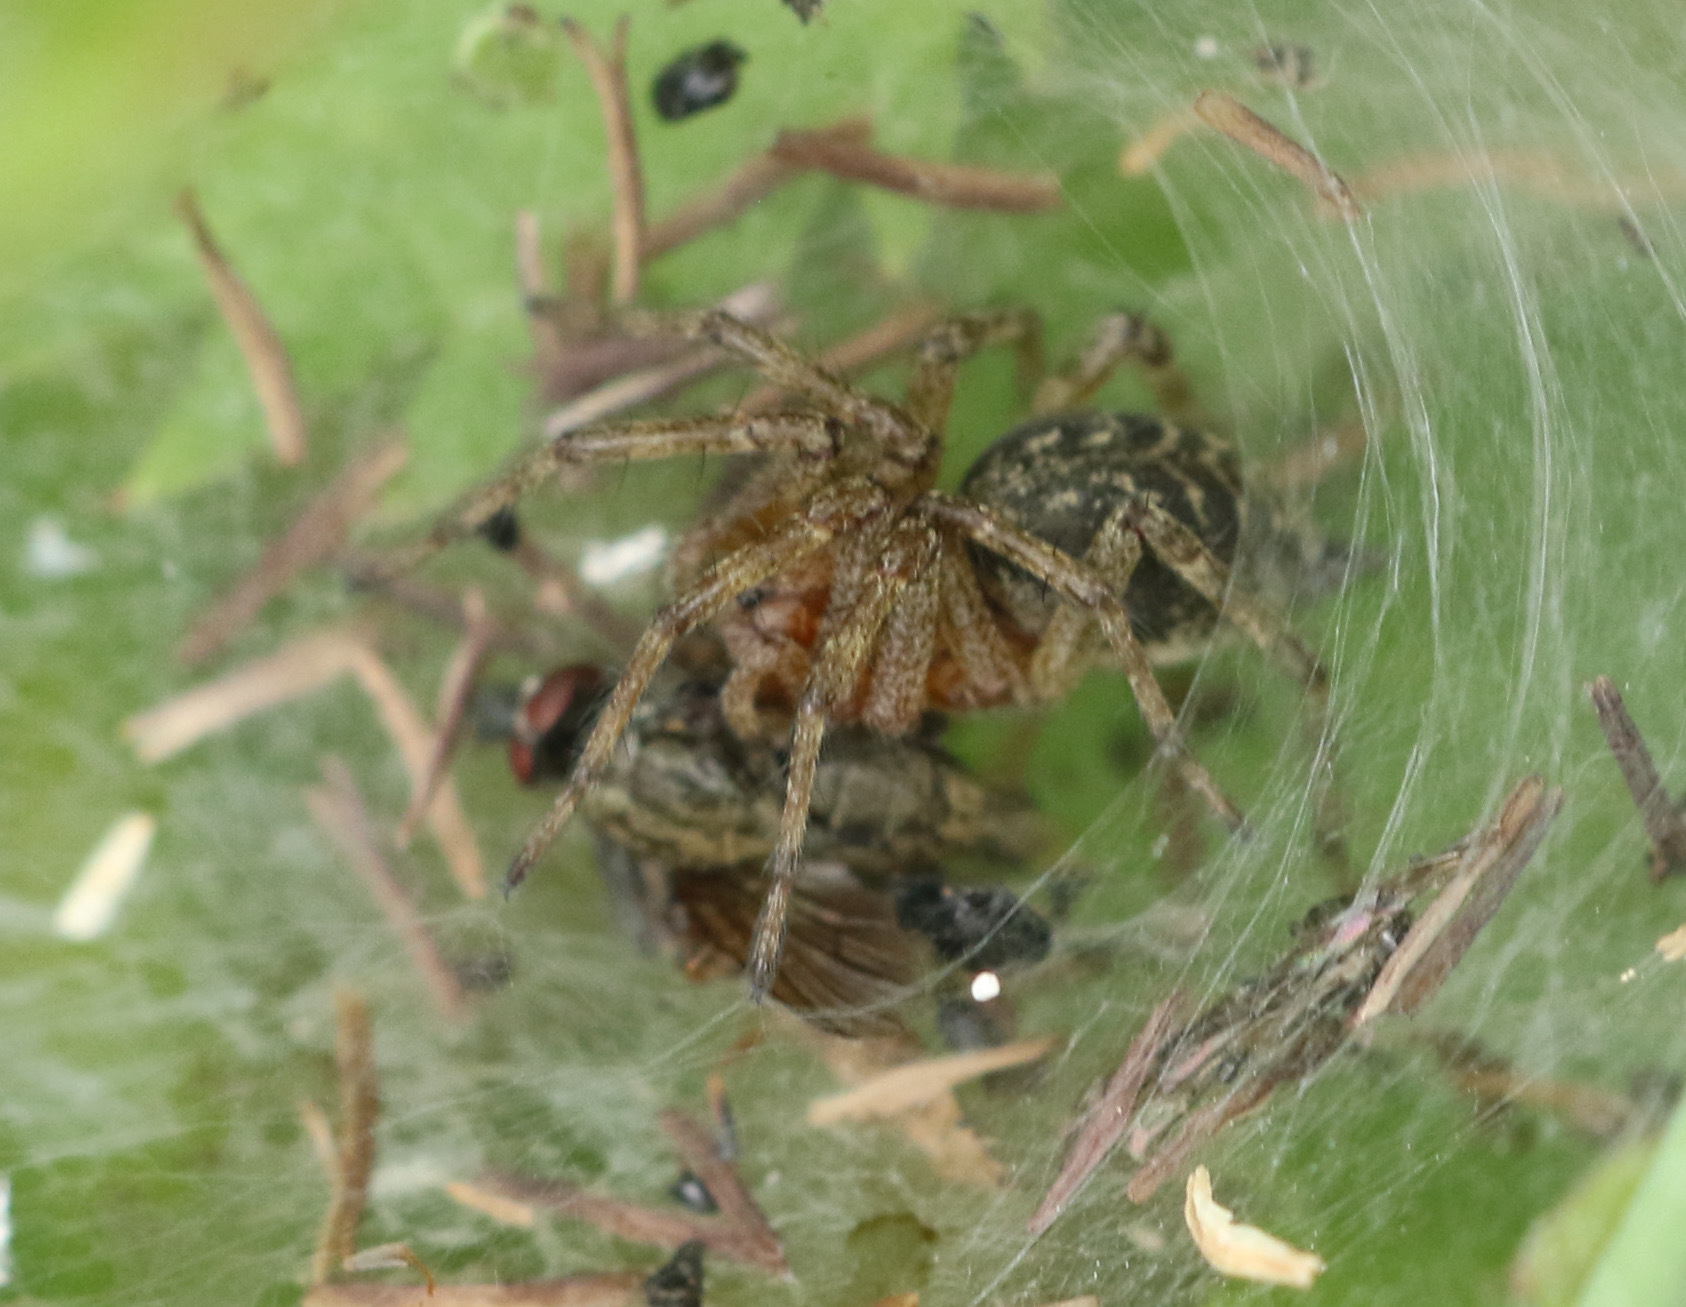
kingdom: Animalia
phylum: Arthropoda
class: Arachnida
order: Araneae
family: Agelenidae
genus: Agelena
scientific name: Agelena labyrinthica
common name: Labyrinth spider
